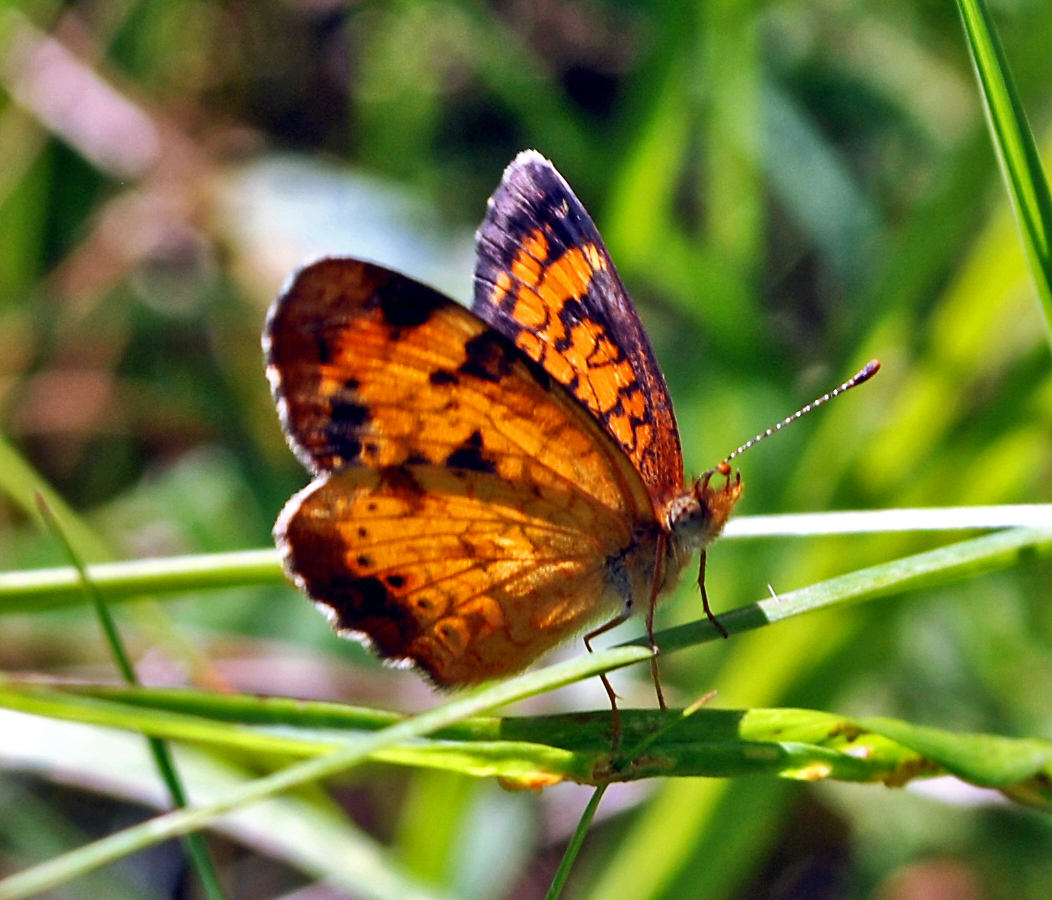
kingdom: Animalia
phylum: Arthropoda
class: Insecta
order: Lepidoptera
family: Nymphalidae
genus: Phyciodes
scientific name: Phyciodes tharos
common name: Pearl crescent
